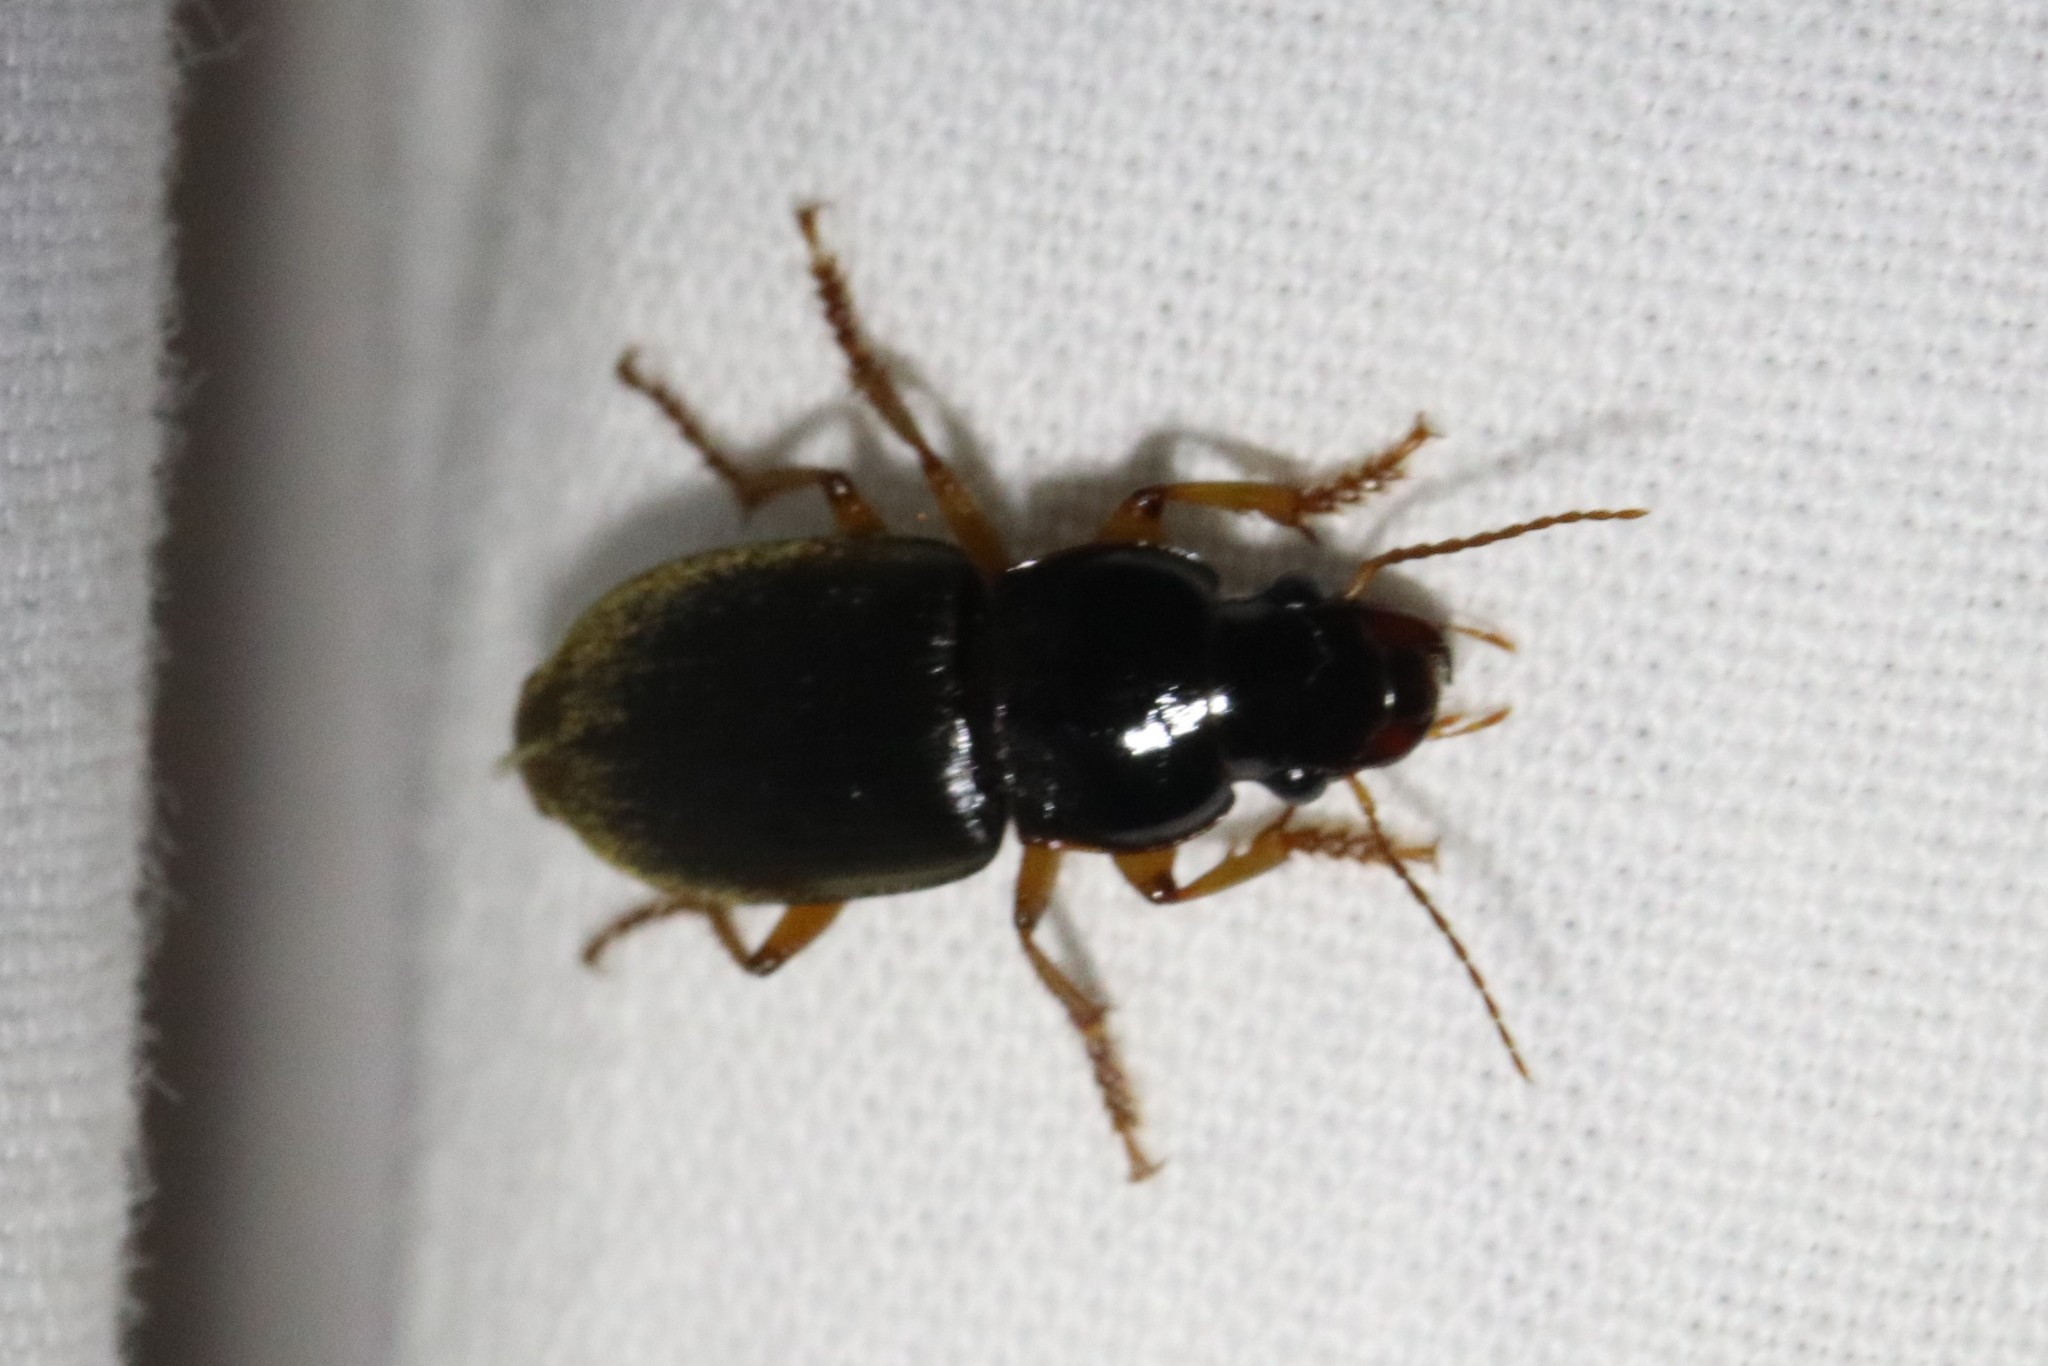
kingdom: Animalia
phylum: Arthropoda
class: Insecta
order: Coleoptera
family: Carabidae
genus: Harpalus
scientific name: Harpalus rufipes
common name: Strawberry harp ground beetle
